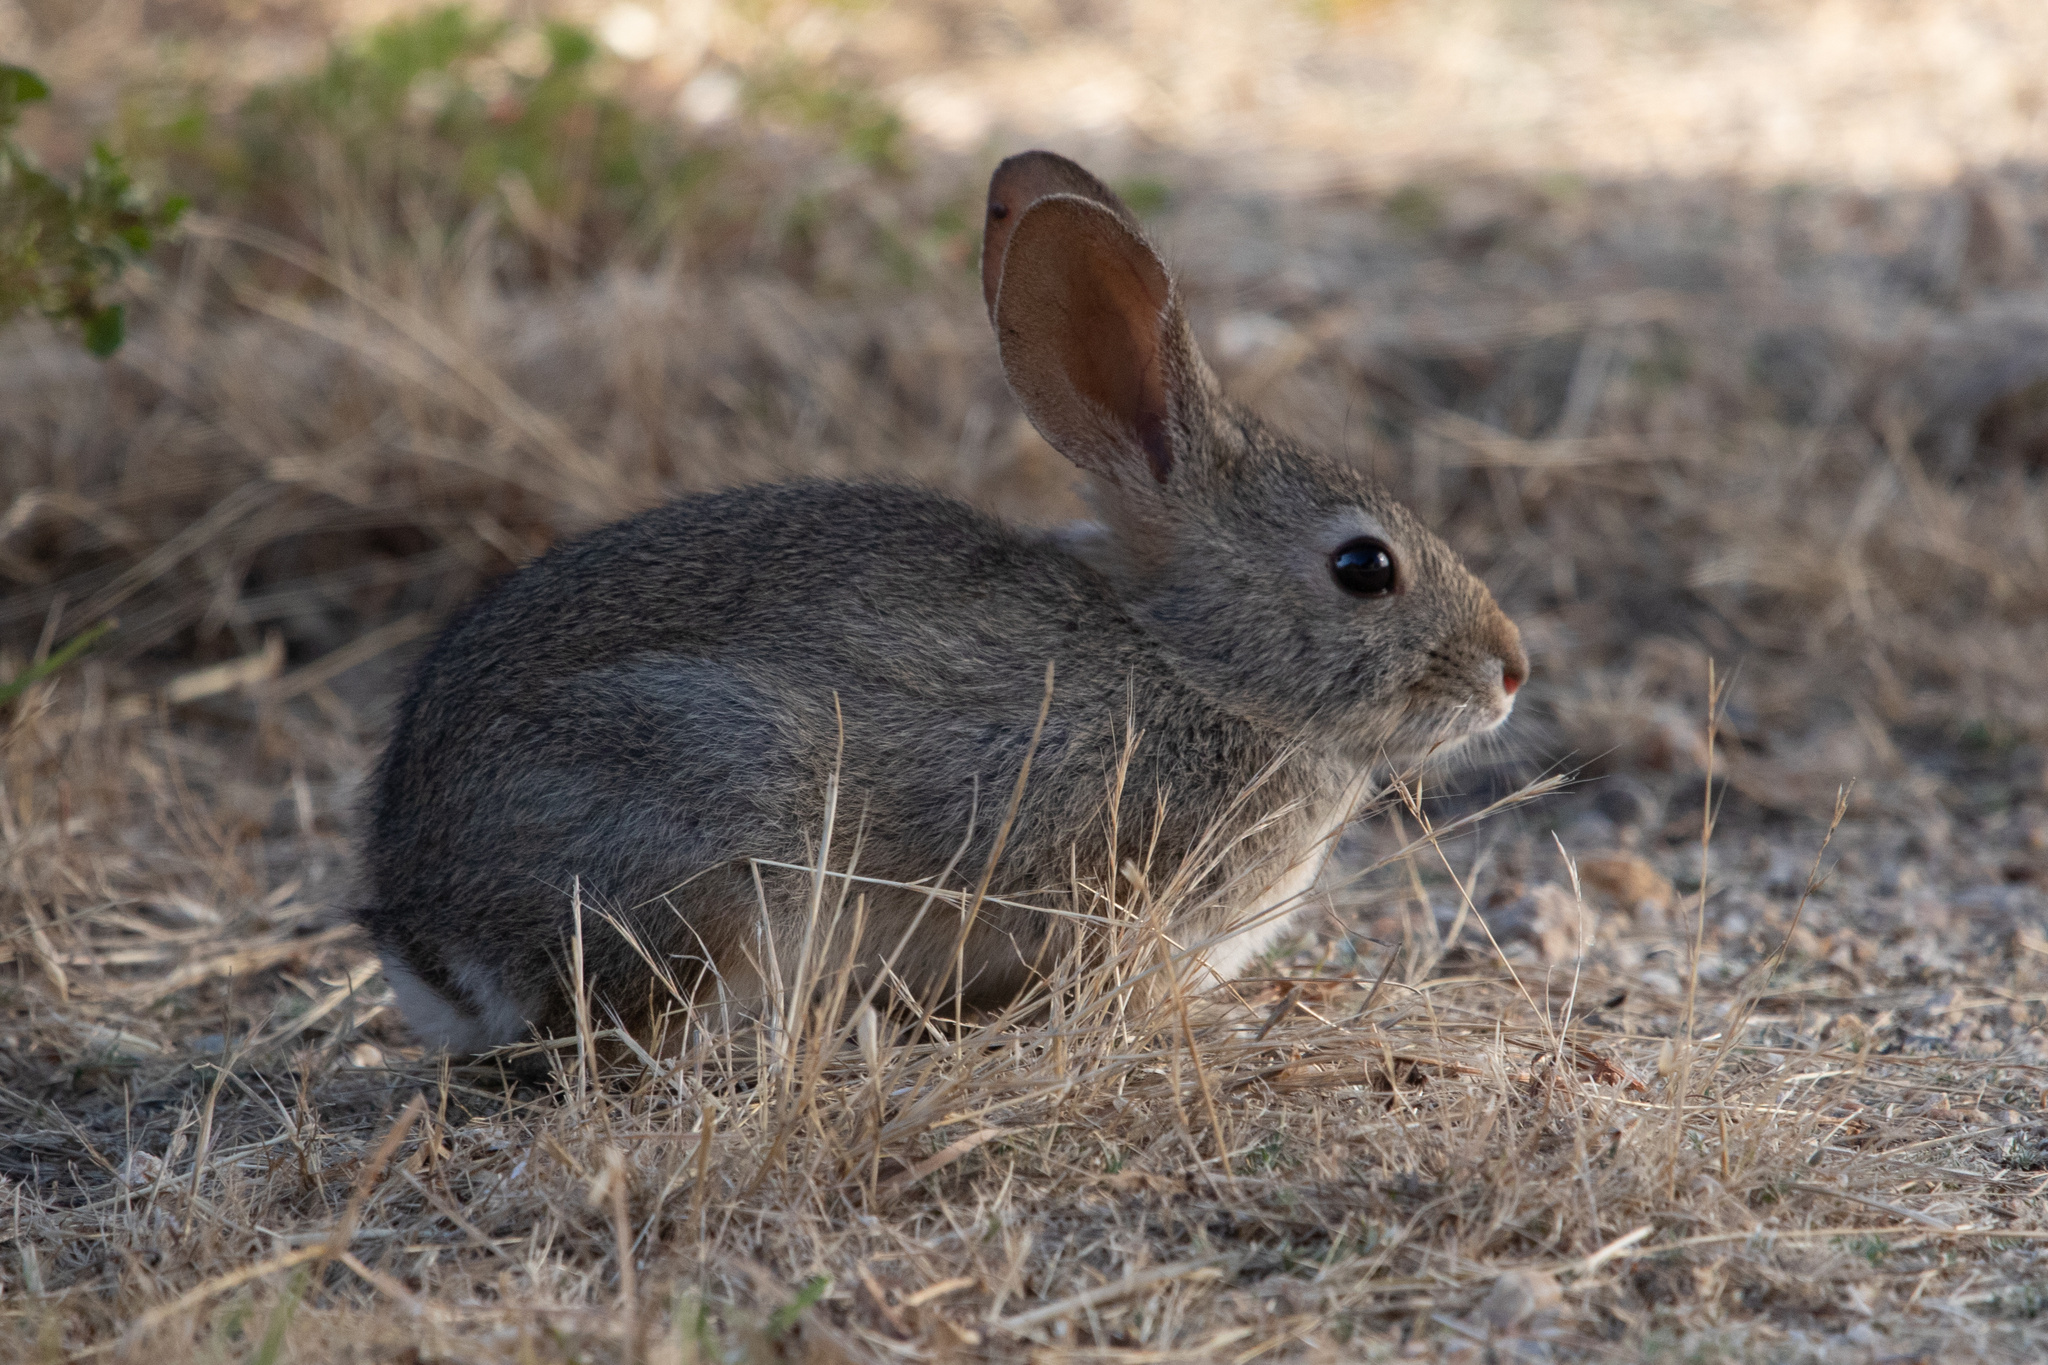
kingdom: Animalia
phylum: Chordata
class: Mammalia
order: Lagomorpha
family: Leporidae
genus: Sylvilagus
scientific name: Sylvilagus bachmani
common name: Brush rabbit
